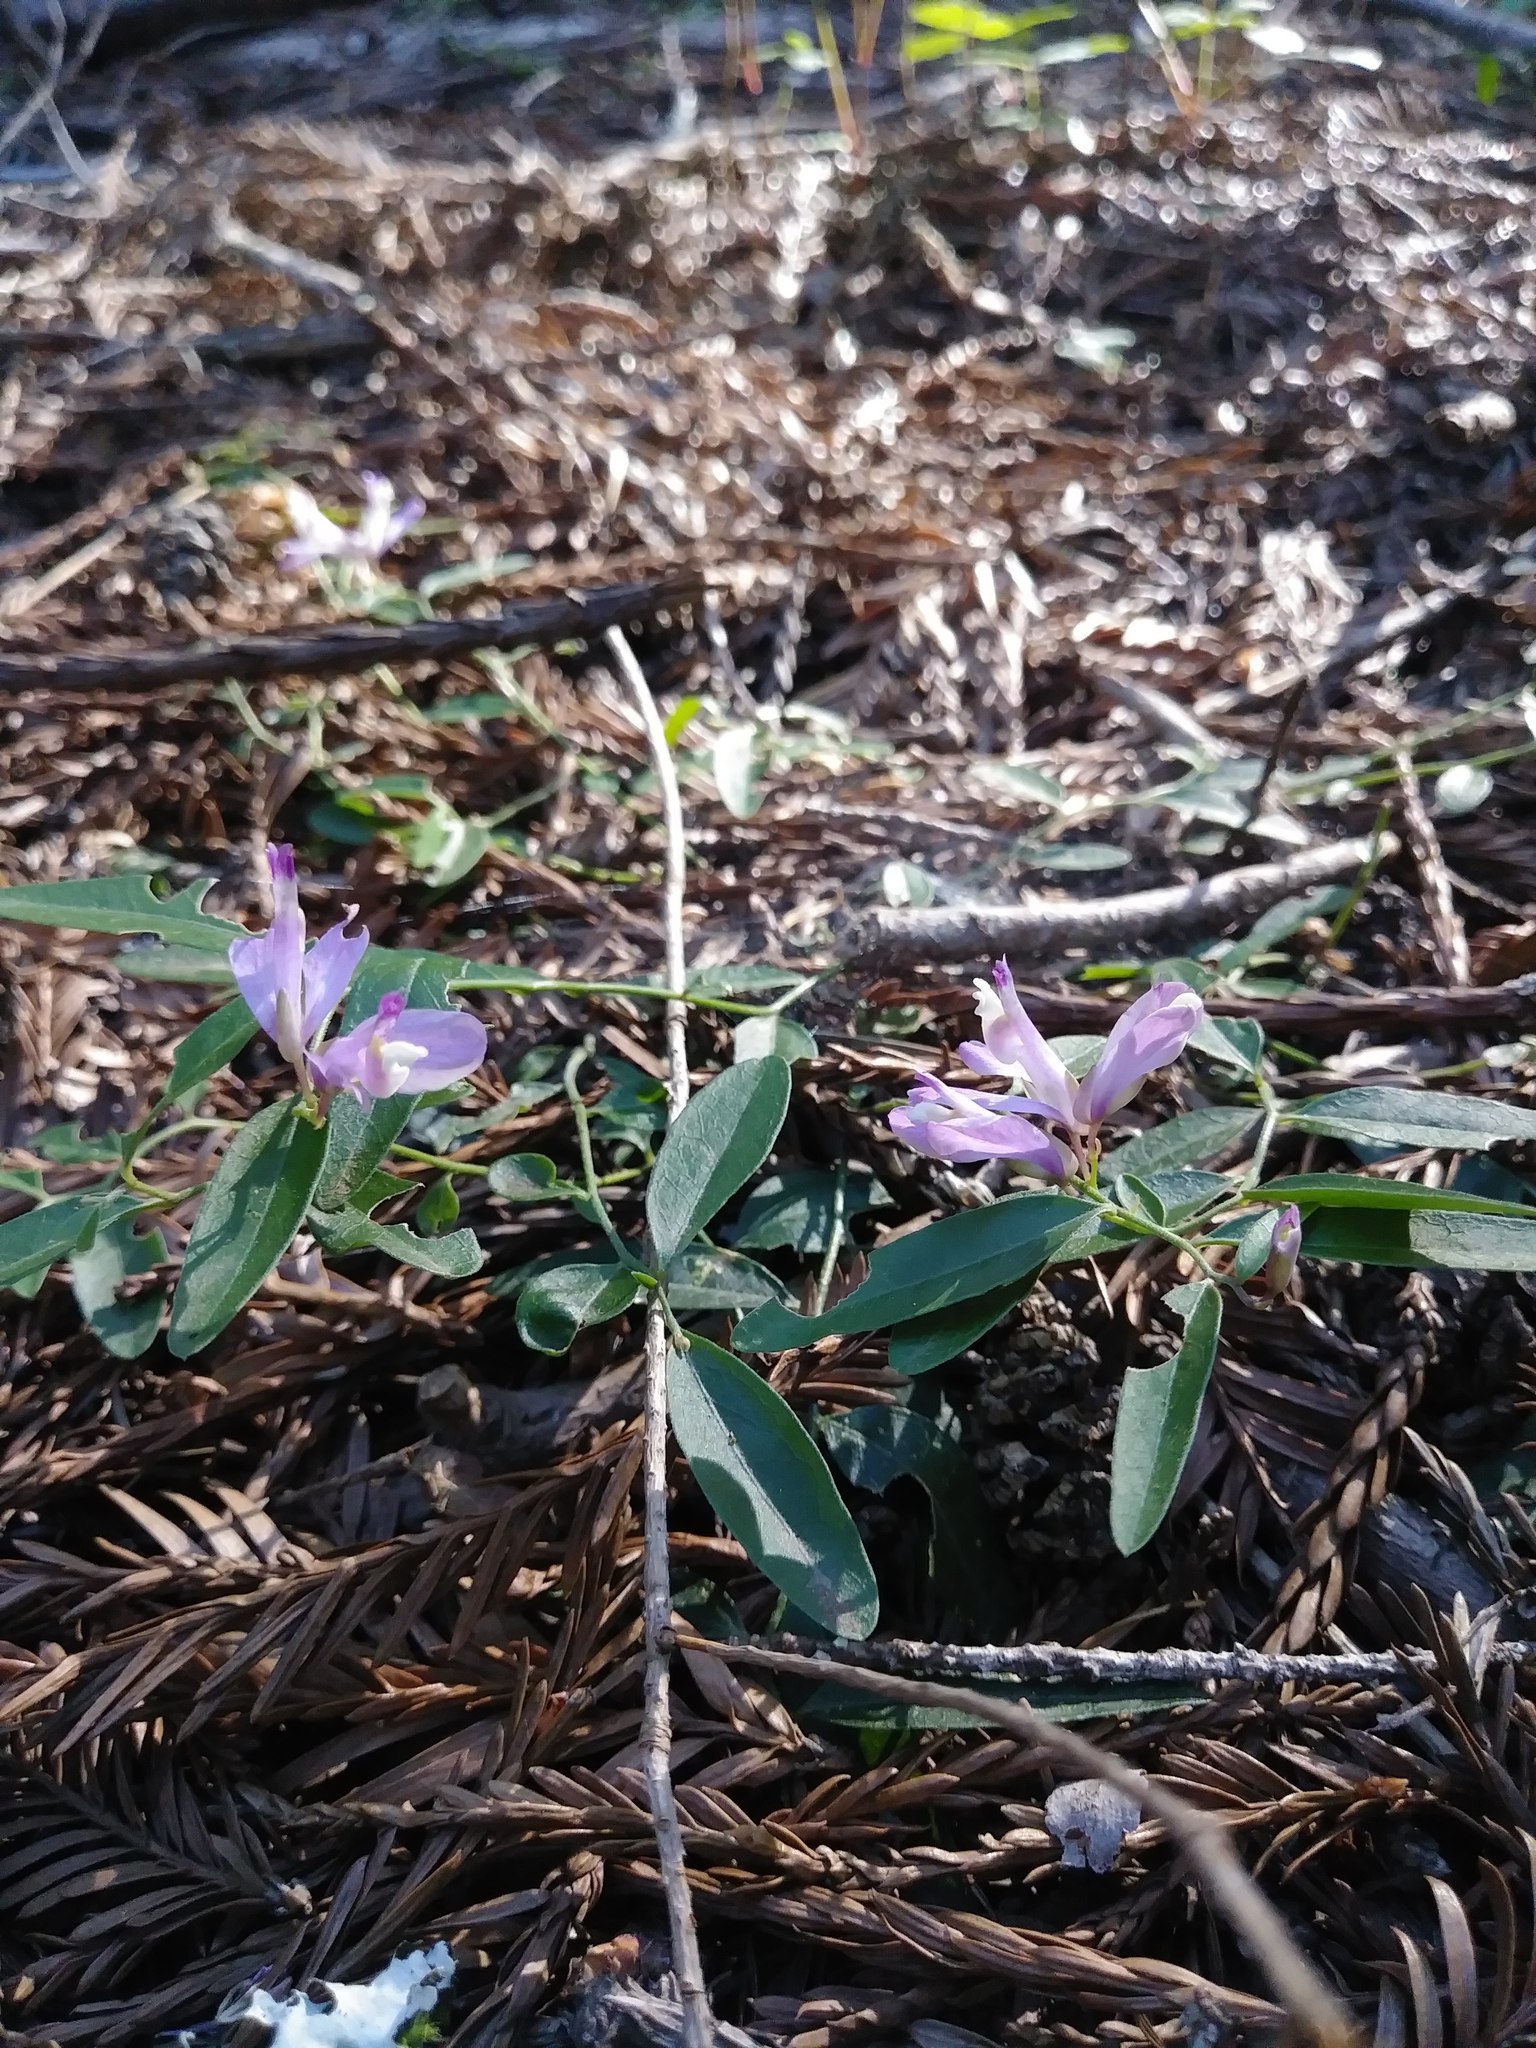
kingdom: Plantae
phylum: Tracheophyta
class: Magnoliopsida
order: Fabales
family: Polygalaceae
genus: Rhinotropis
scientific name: Rhinotropis californica
